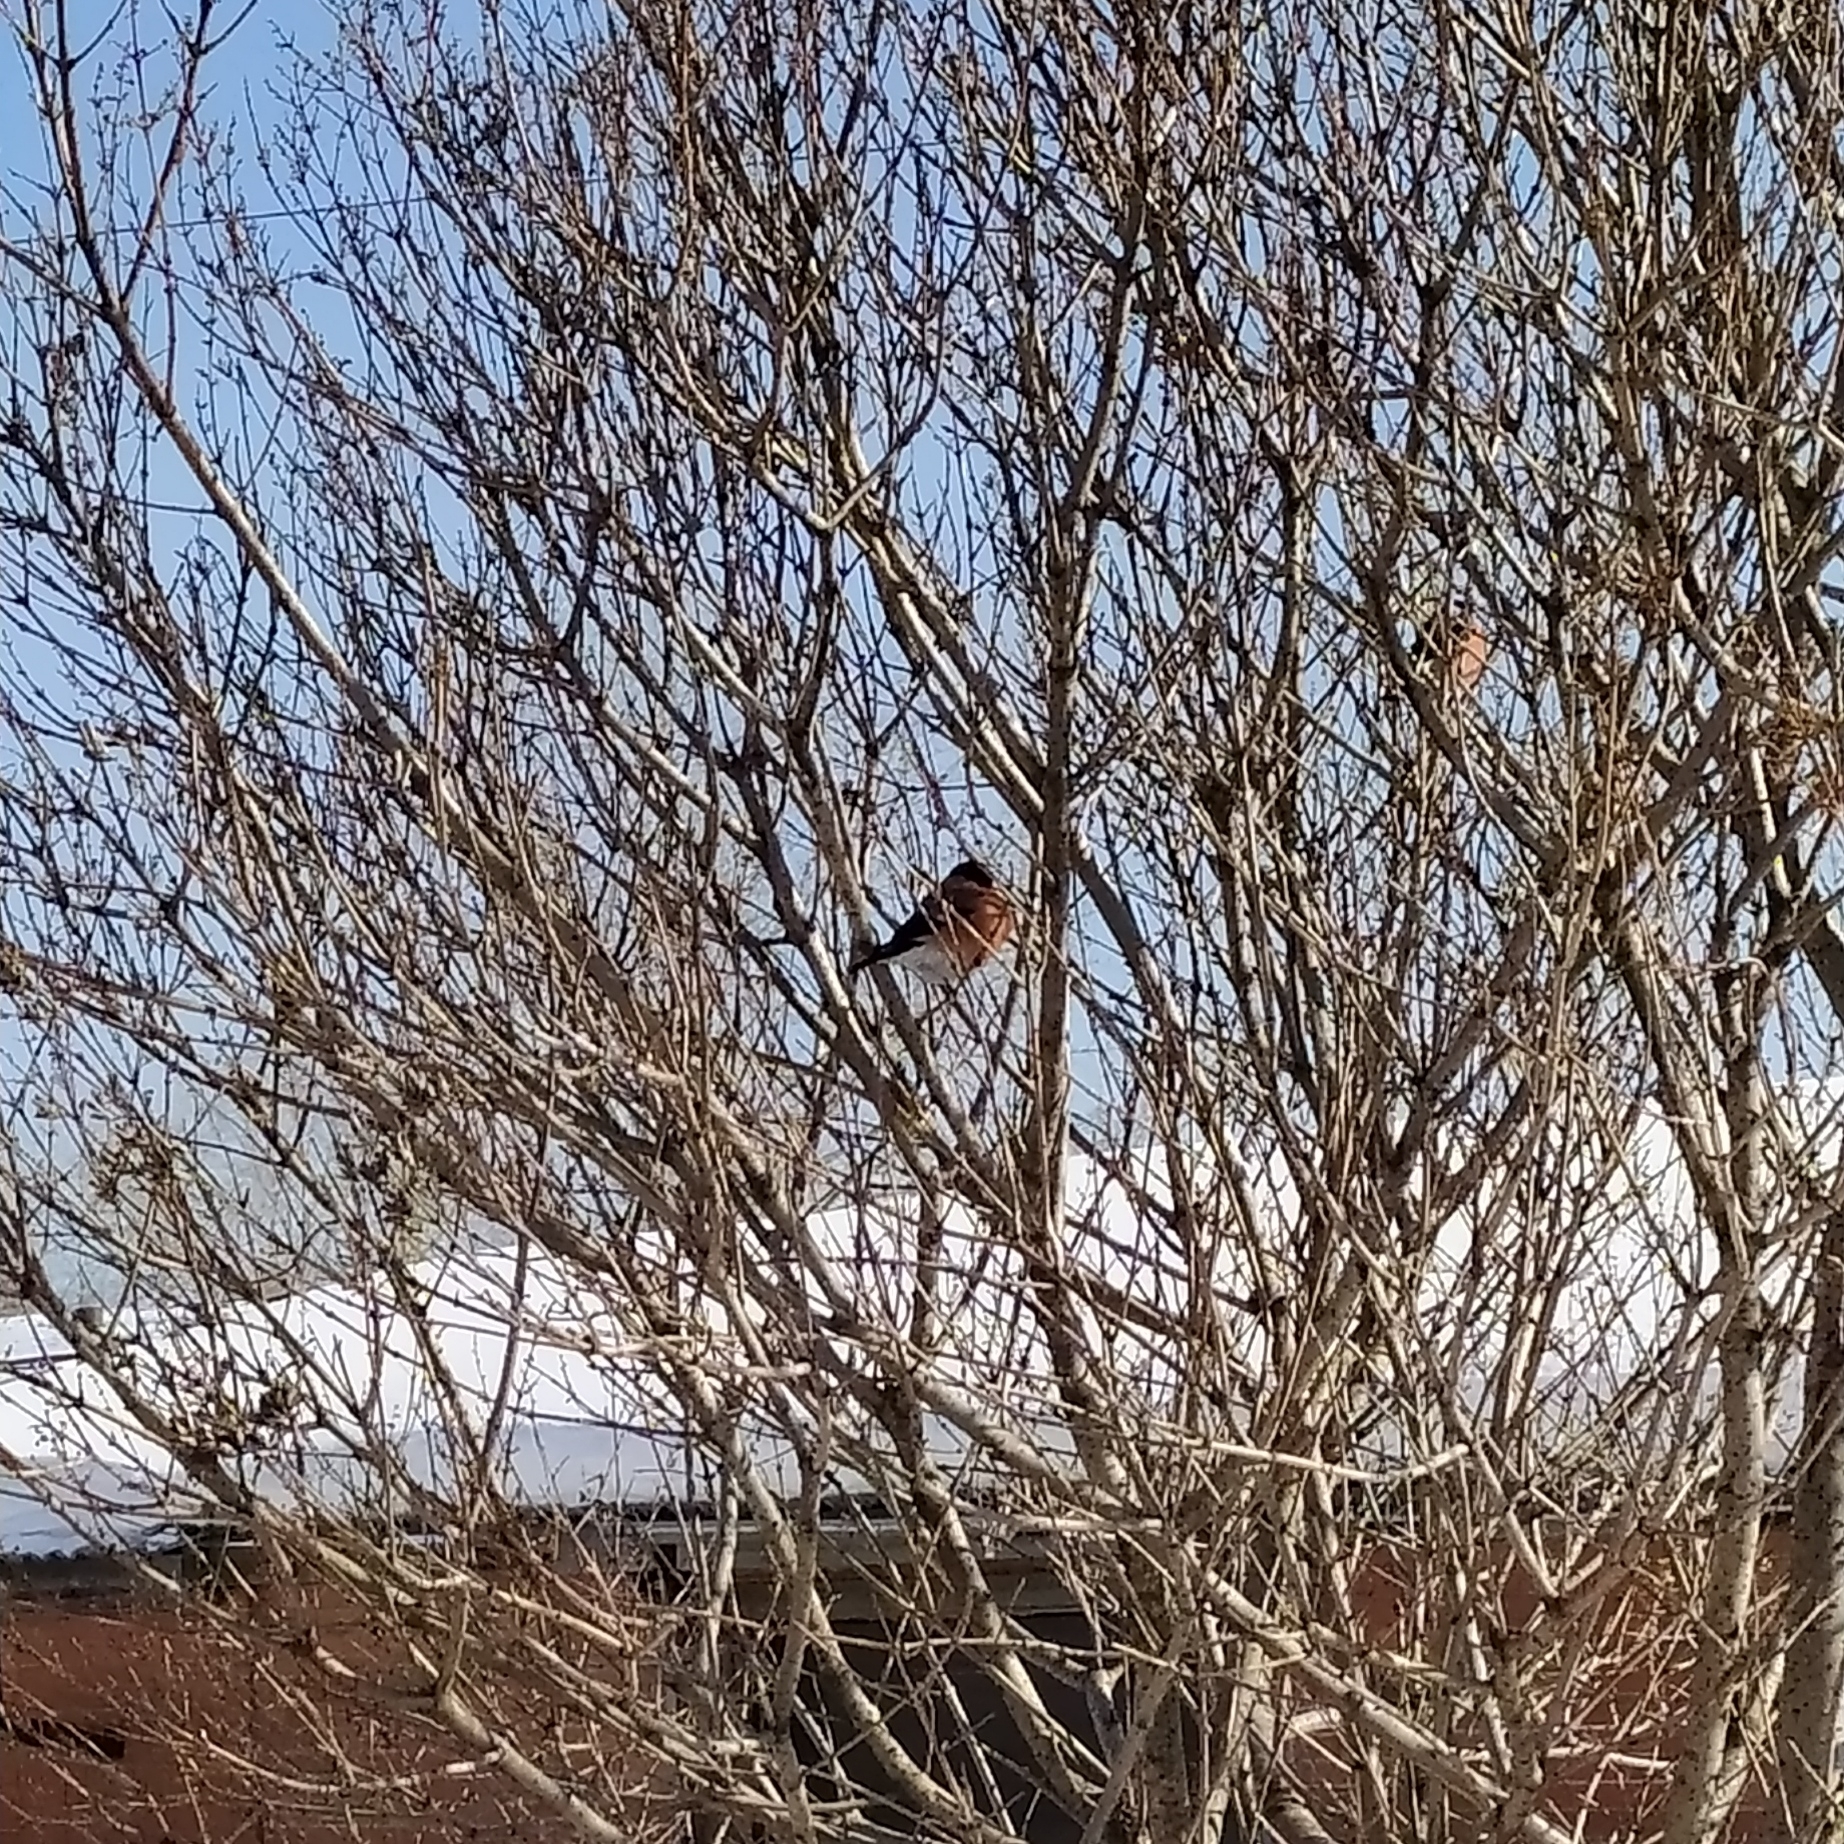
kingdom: Animalia
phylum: Chordata
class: Aves
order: Passeriformes
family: Fringillidae
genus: Pyrrhula
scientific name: Pyrrhula pyrrhula
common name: Eurasian bullfinch
